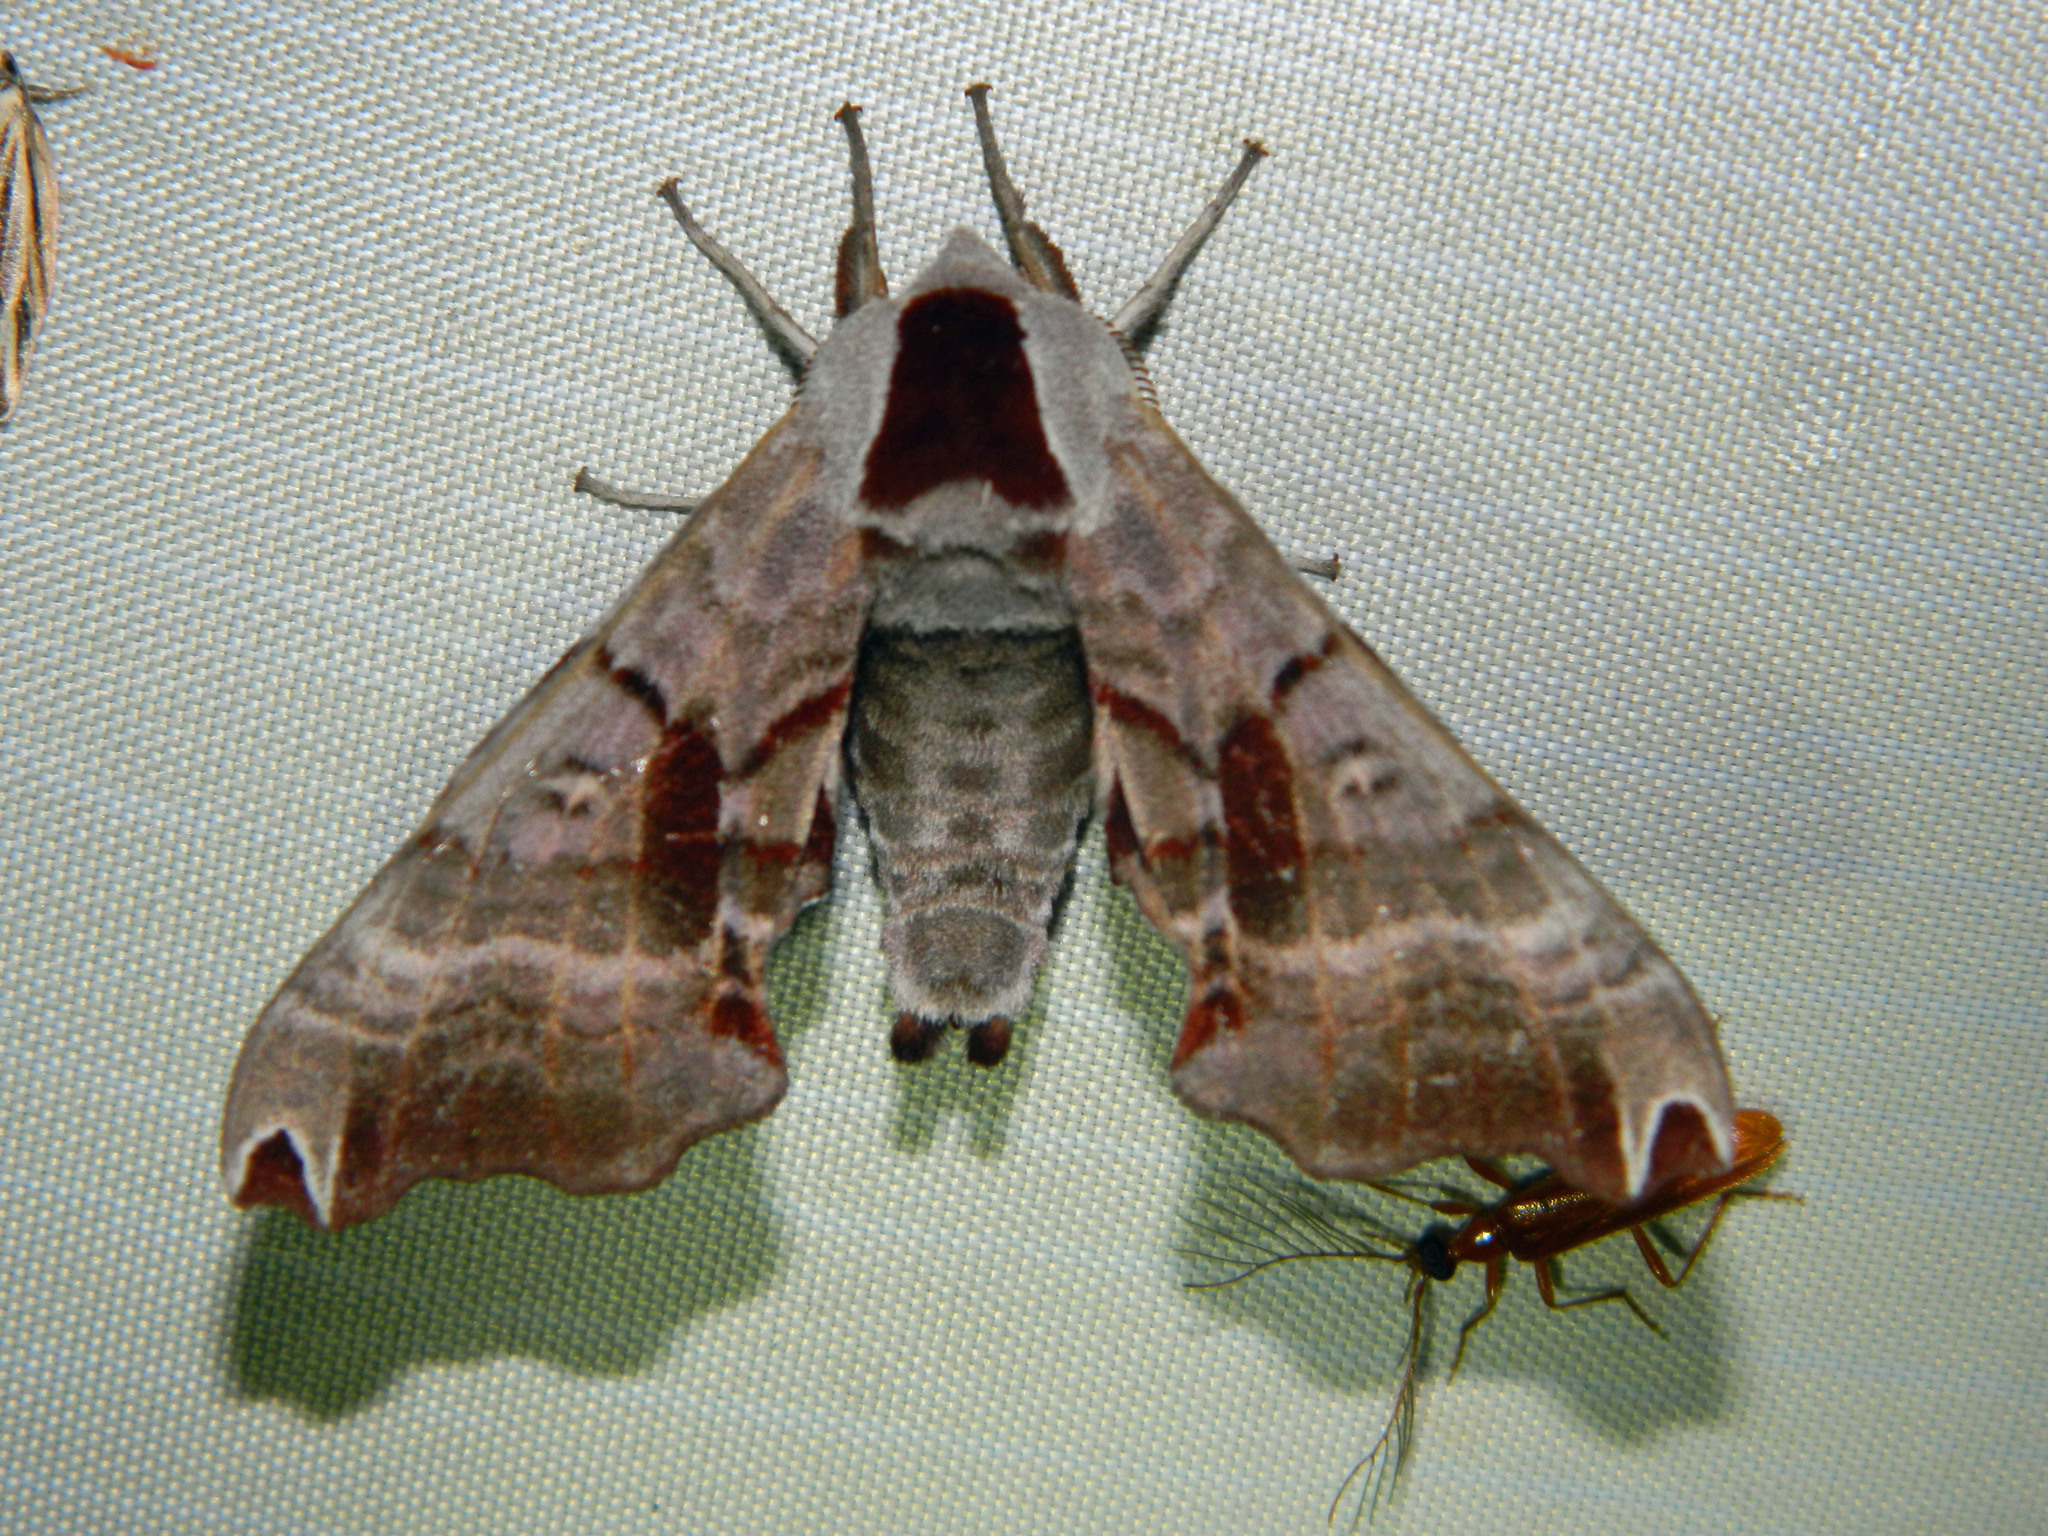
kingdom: Animalia
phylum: Arthropoda
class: Insecta
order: Lepidoptera
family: Sphingidae
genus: Smerinthus
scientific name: Smerinthus jamaicensis
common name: Twin spotted sphinx
